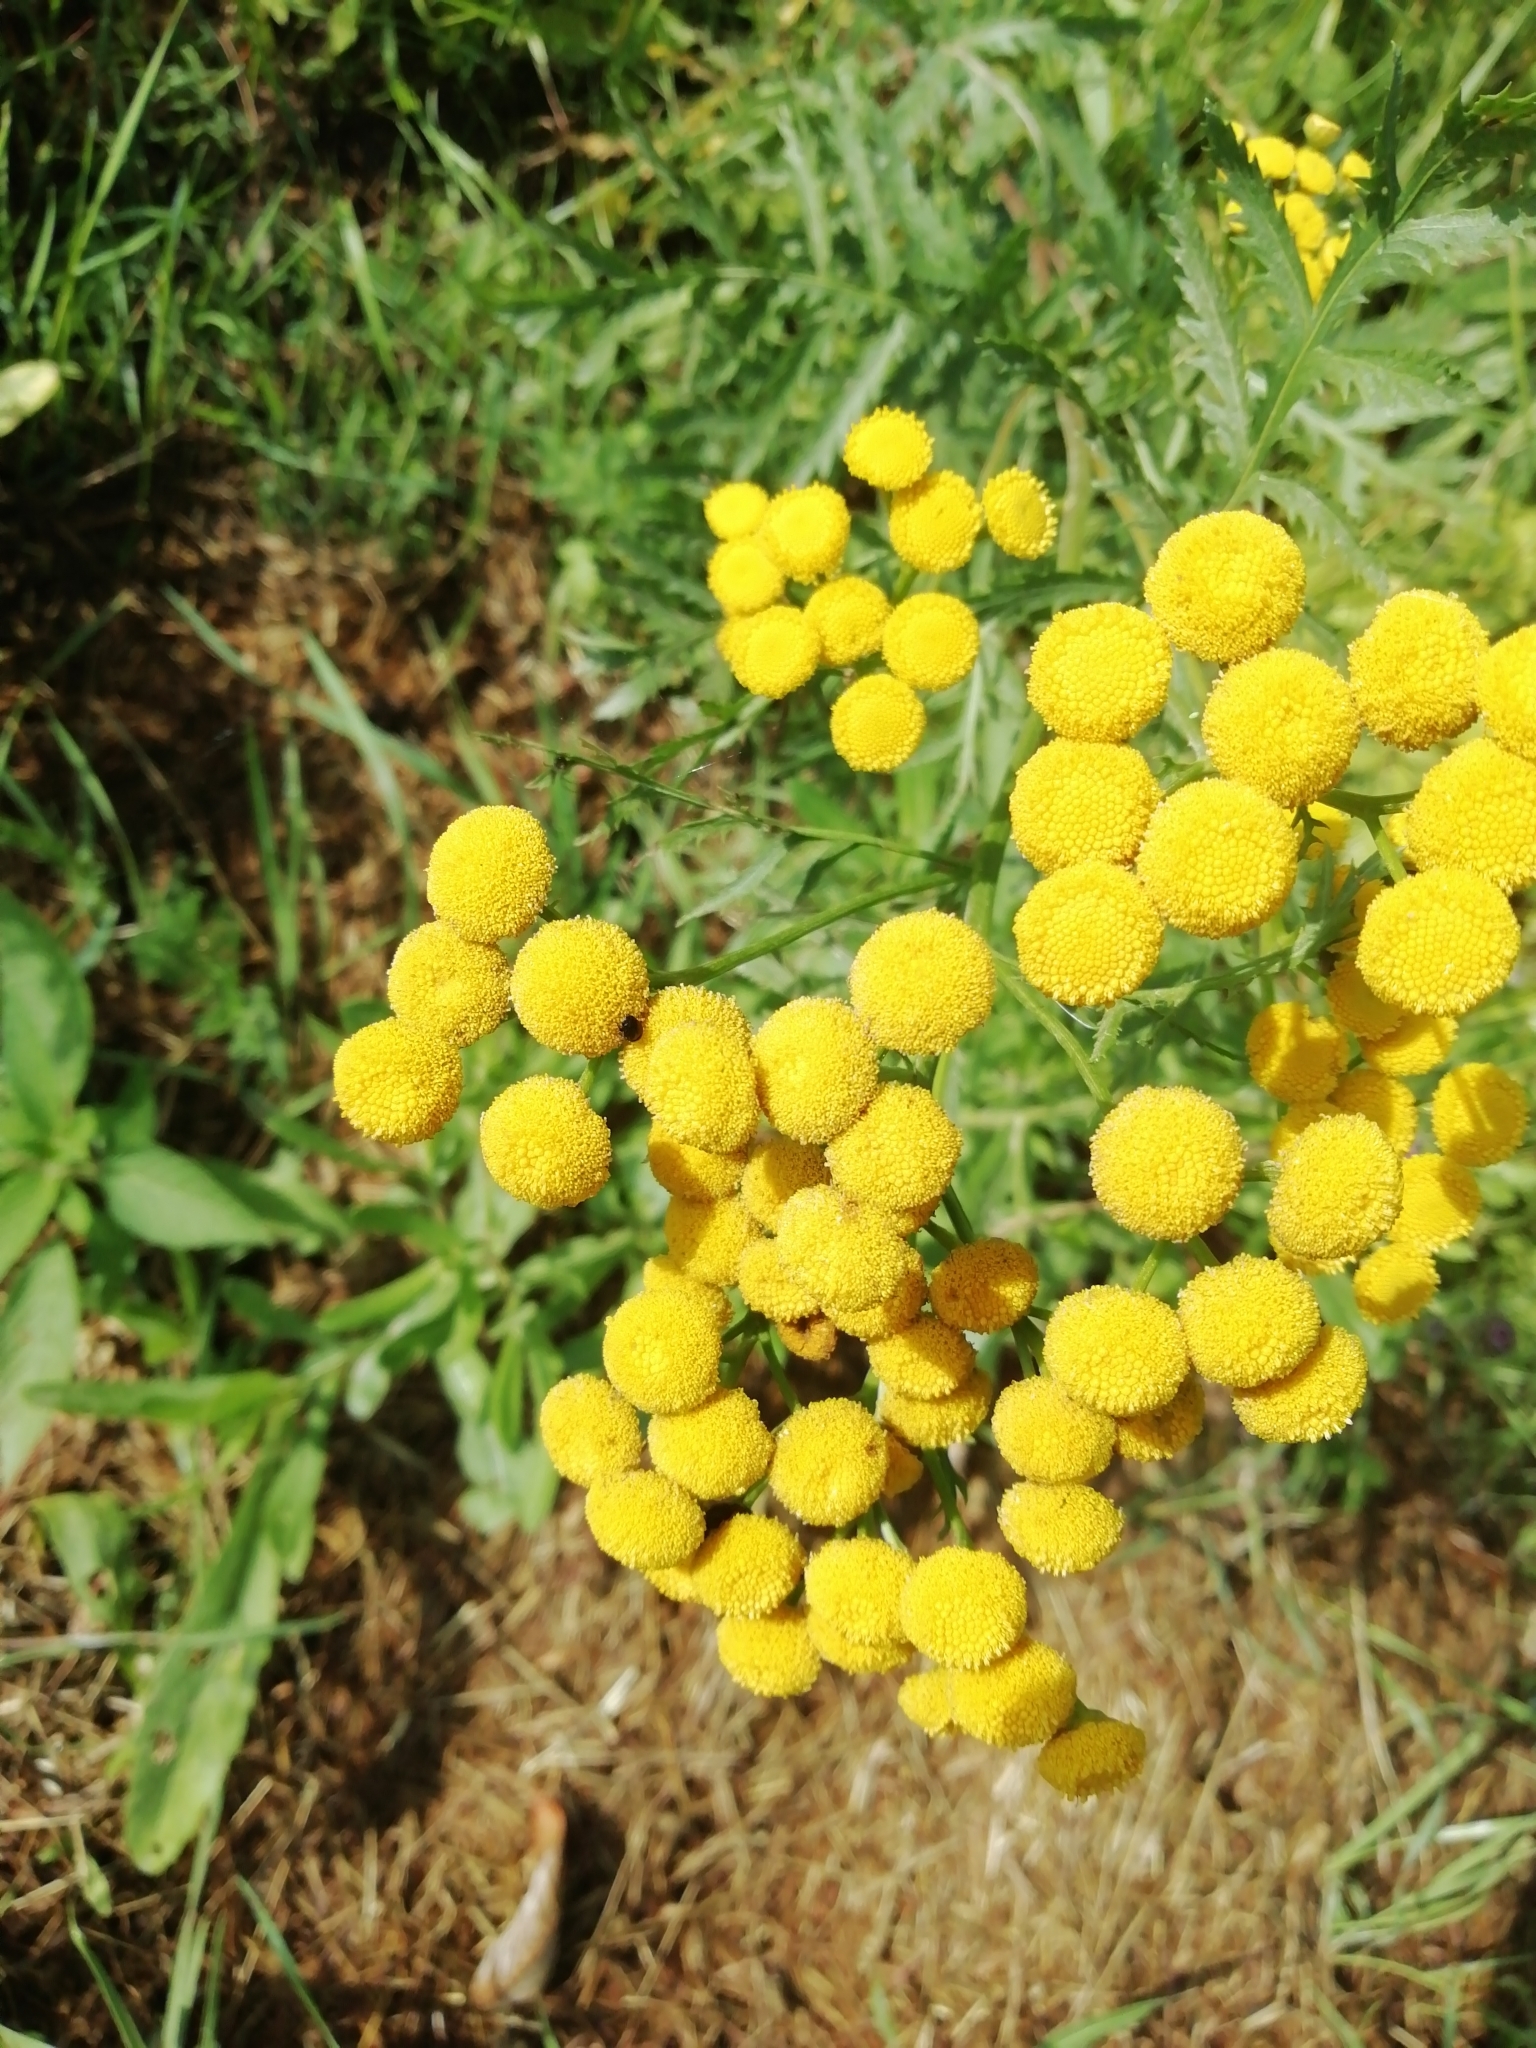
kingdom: Plantae
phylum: Tracheophyta
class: Magnoliopsida
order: Asterales
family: Asteraceae
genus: Tanacetum
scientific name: Tanacetum vulgare
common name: Common tansy
